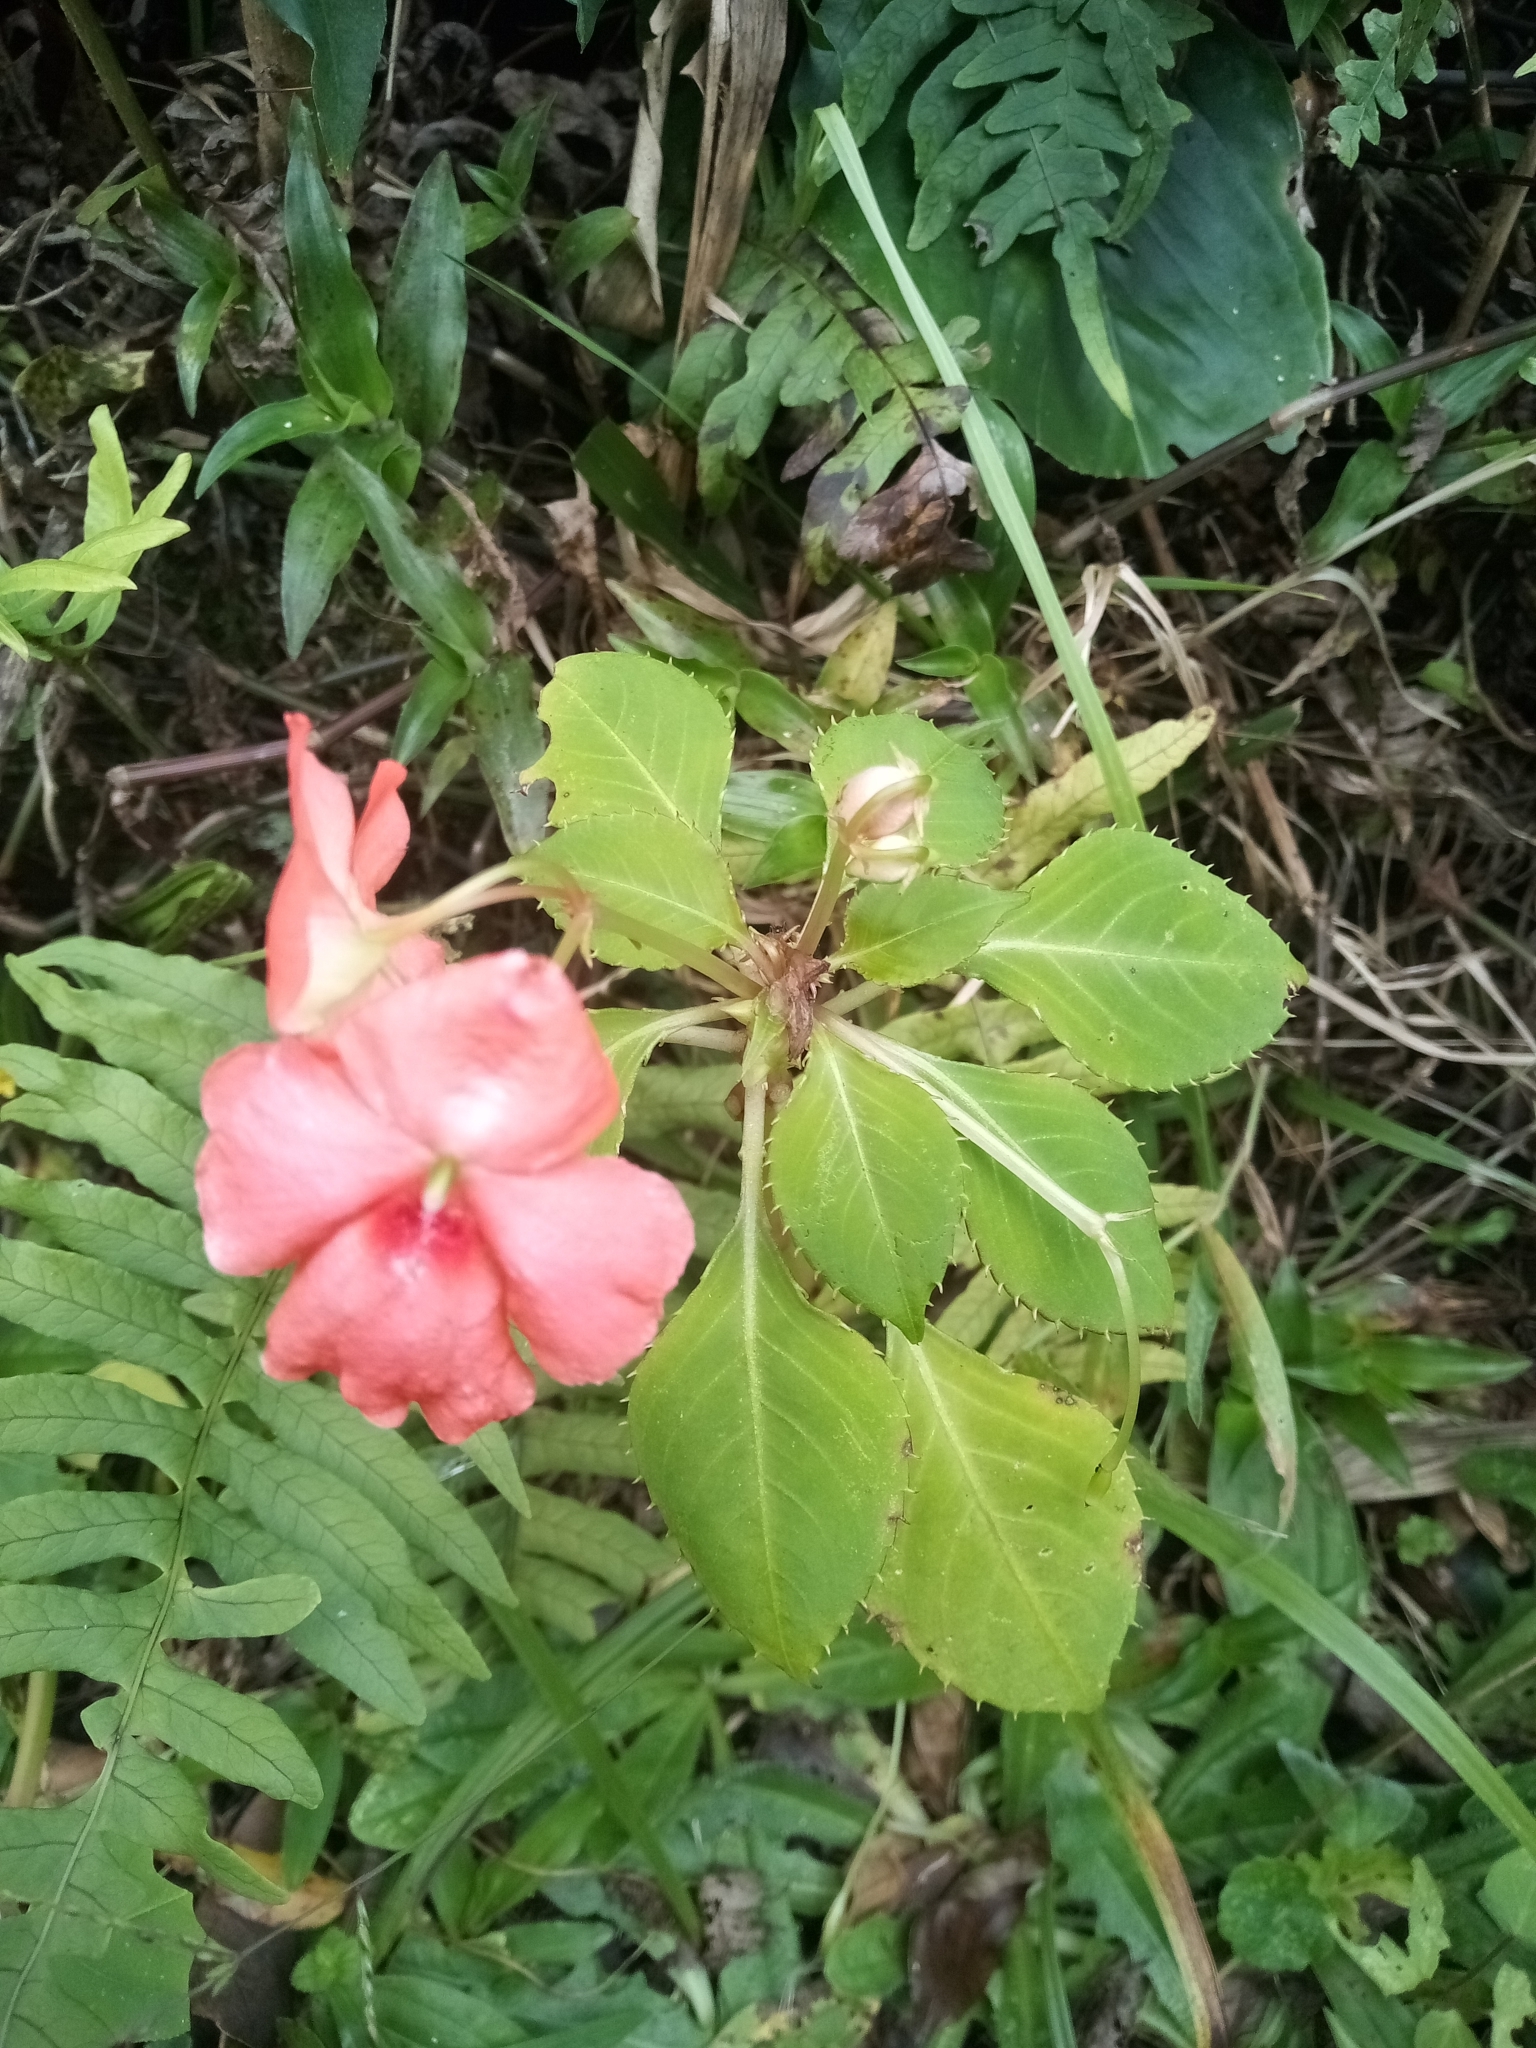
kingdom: Plantae
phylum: Tracheophyta
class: Magnoliopsida
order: Ericales
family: Balsaminaceae
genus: Impatiens
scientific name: Impatiens walleriana
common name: Buzzy lizzy
